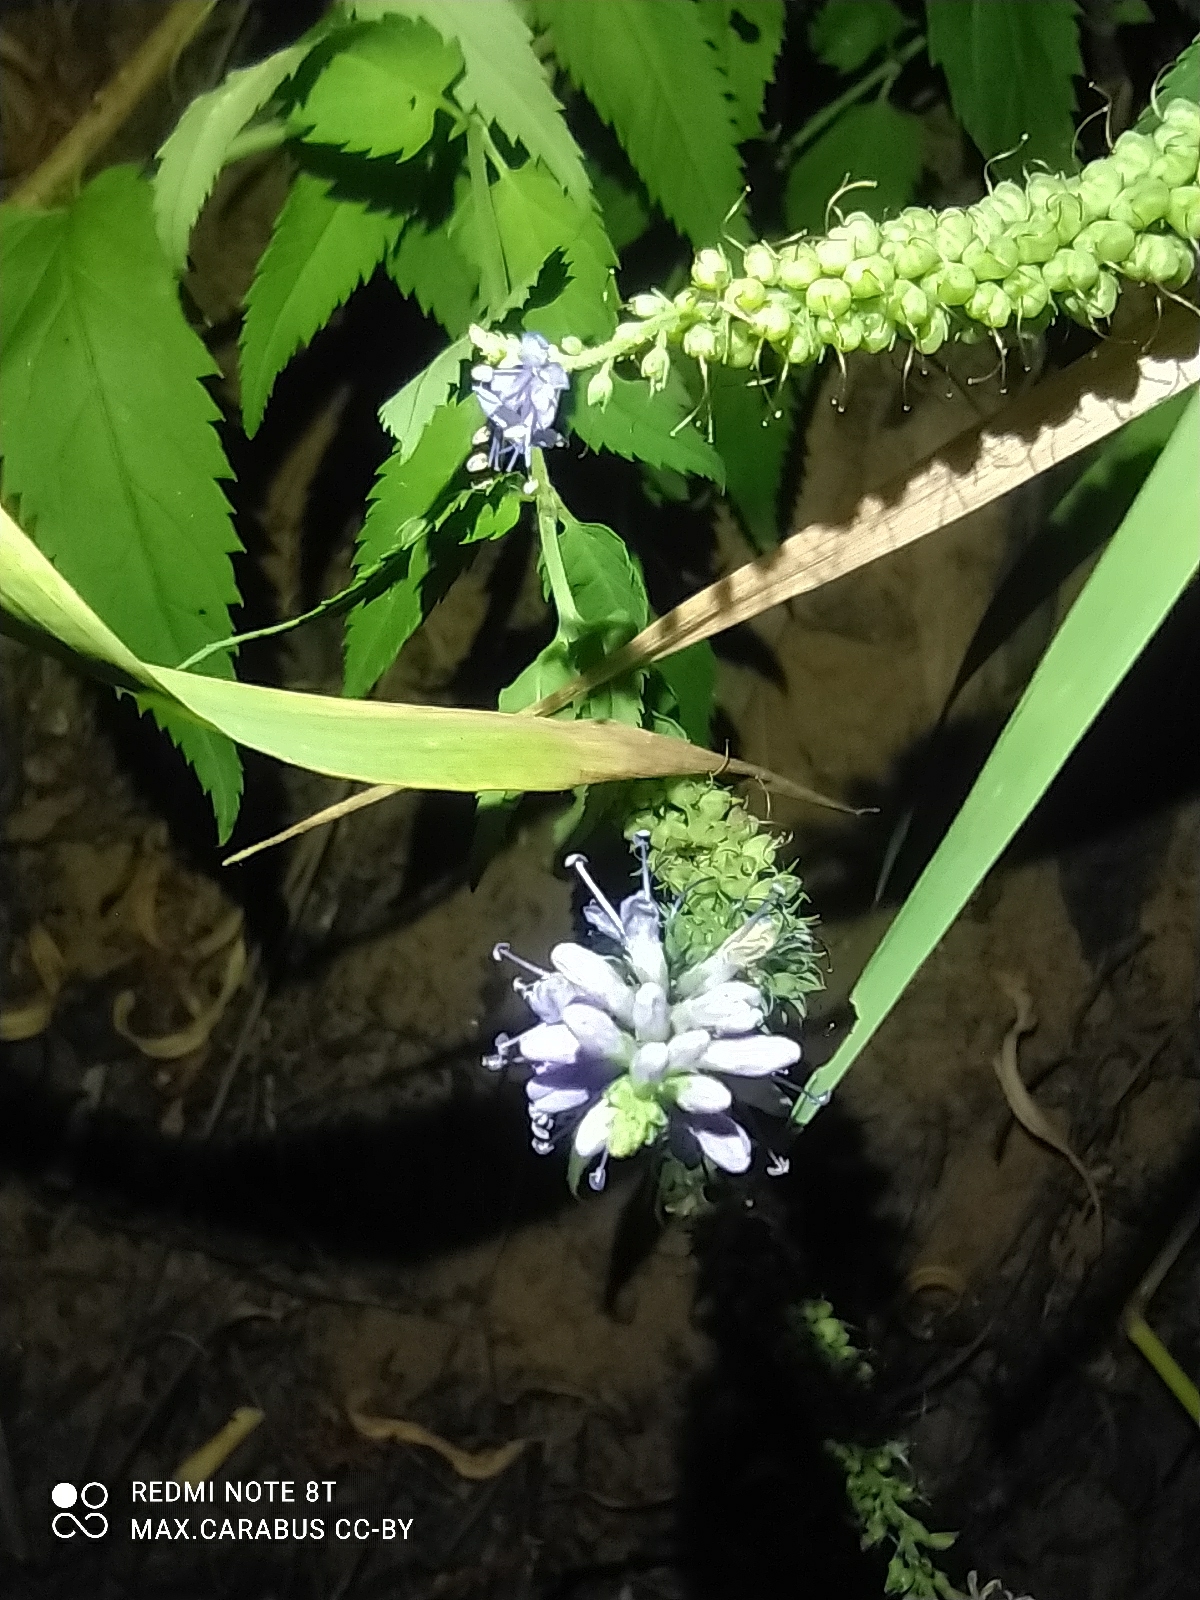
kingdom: Plantae
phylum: Tracheophyta
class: Magnoliopsida
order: Lamiales
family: Plantaginaceae
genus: Veronica
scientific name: Veronica longifolia
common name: Garden speedwell
